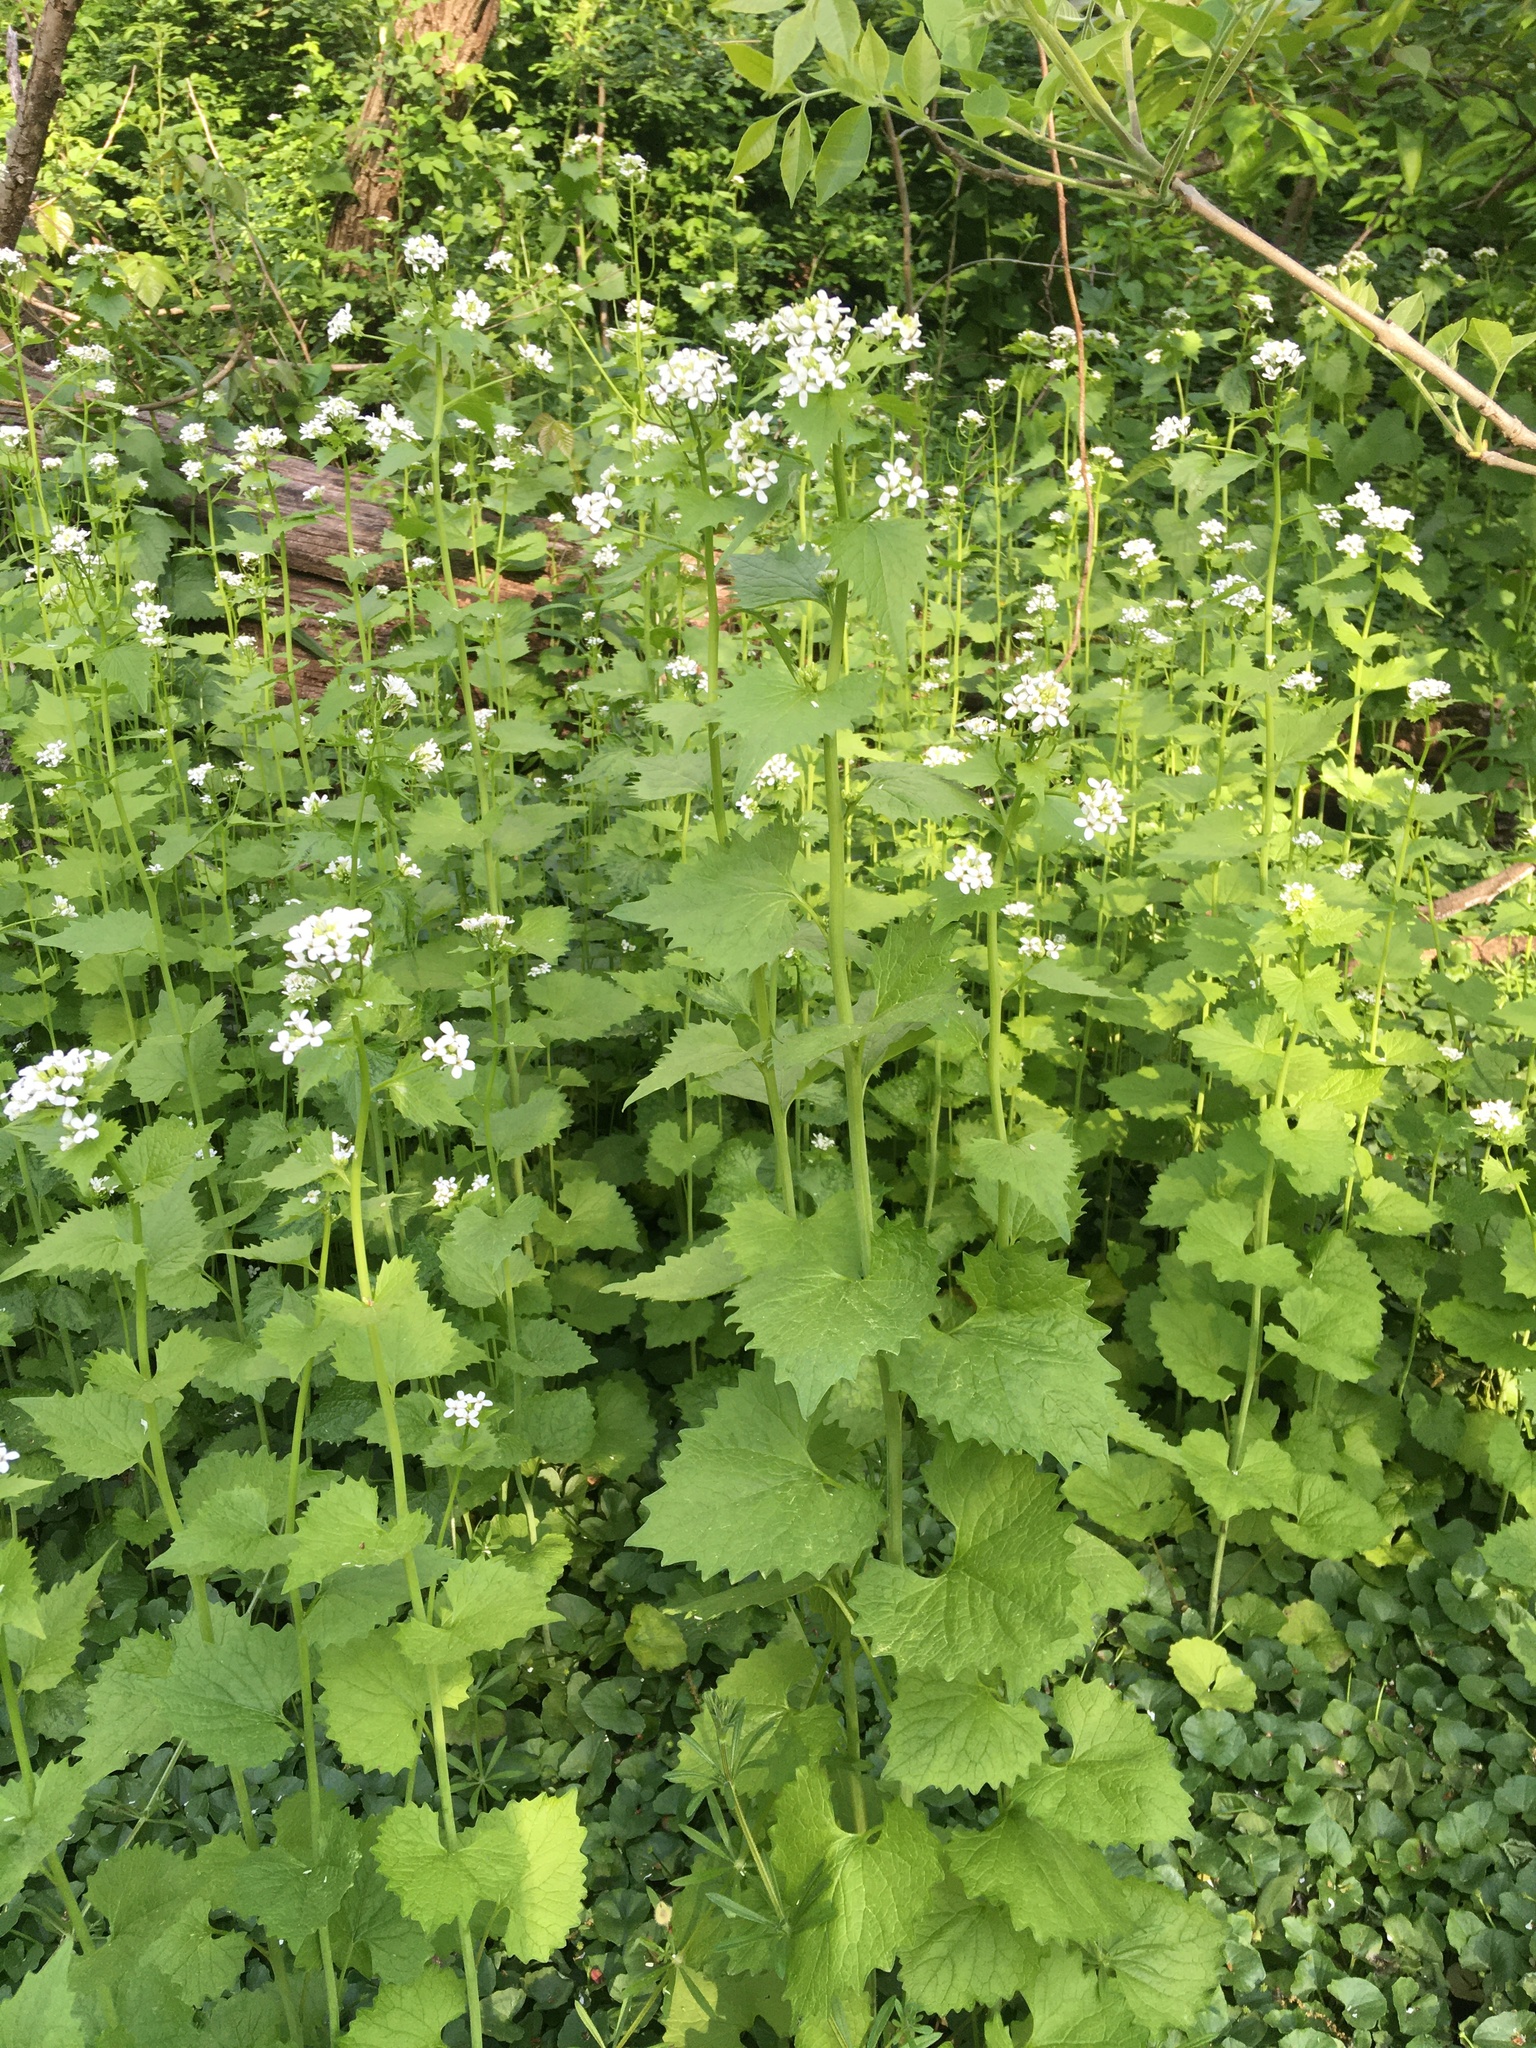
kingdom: Plantae
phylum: Tracheophyta
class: Magnoliopsida
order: Brassicales
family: Brassicaceae
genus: Alliaria
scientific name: Alliaria petiolata
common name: Garlic mustard
